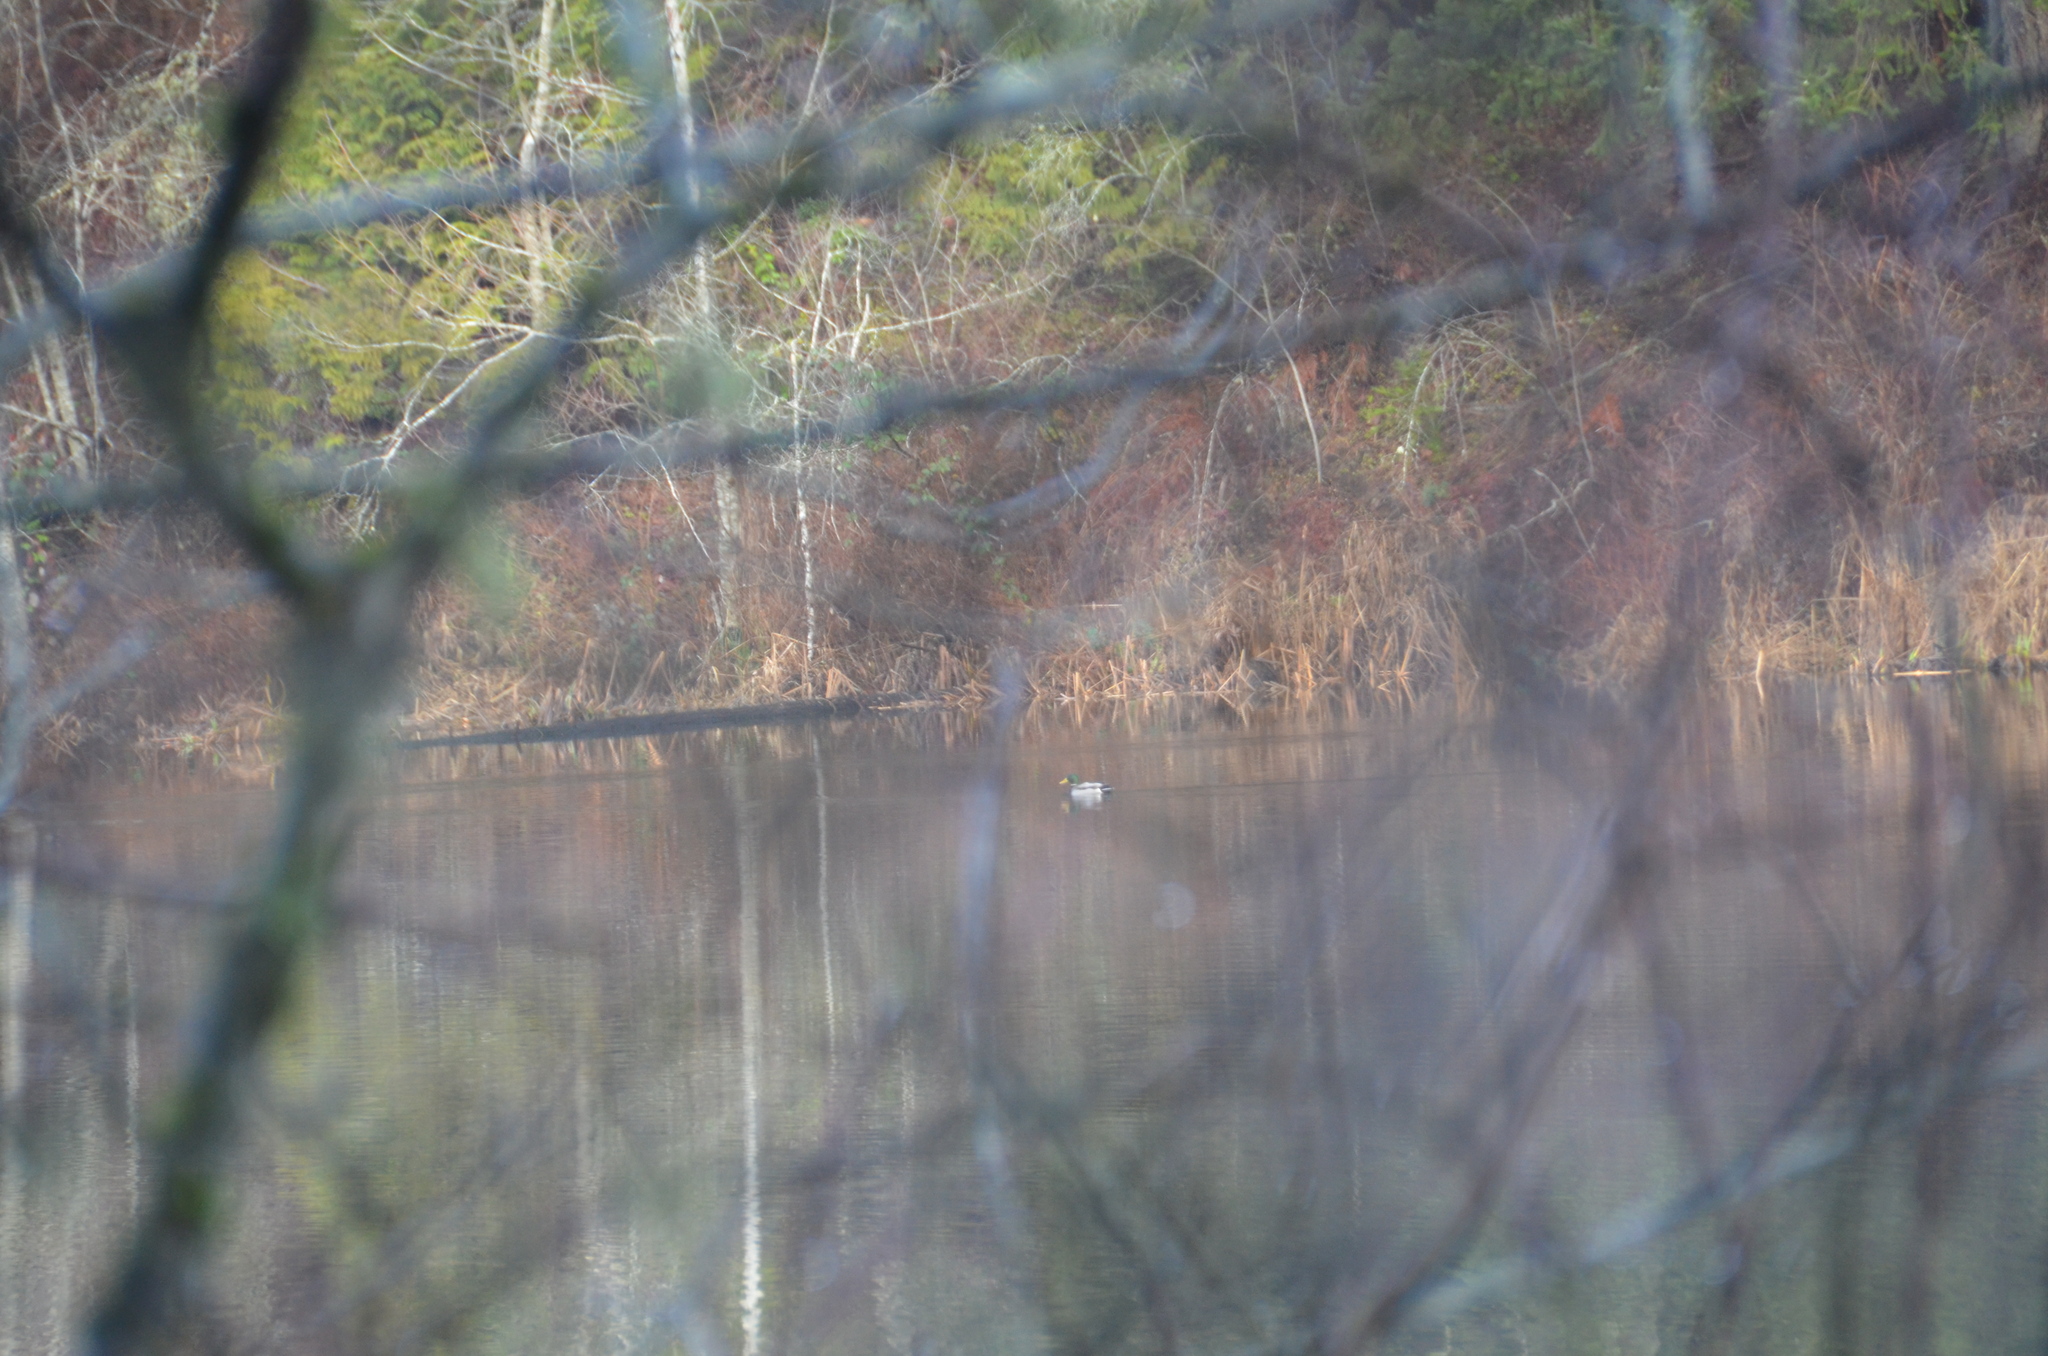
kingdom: Animalia
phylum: Chordata
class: Aves
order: Anseriformes
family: Anatidae
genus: Anas
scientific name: Anas platyrhynchos
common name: Mallard
